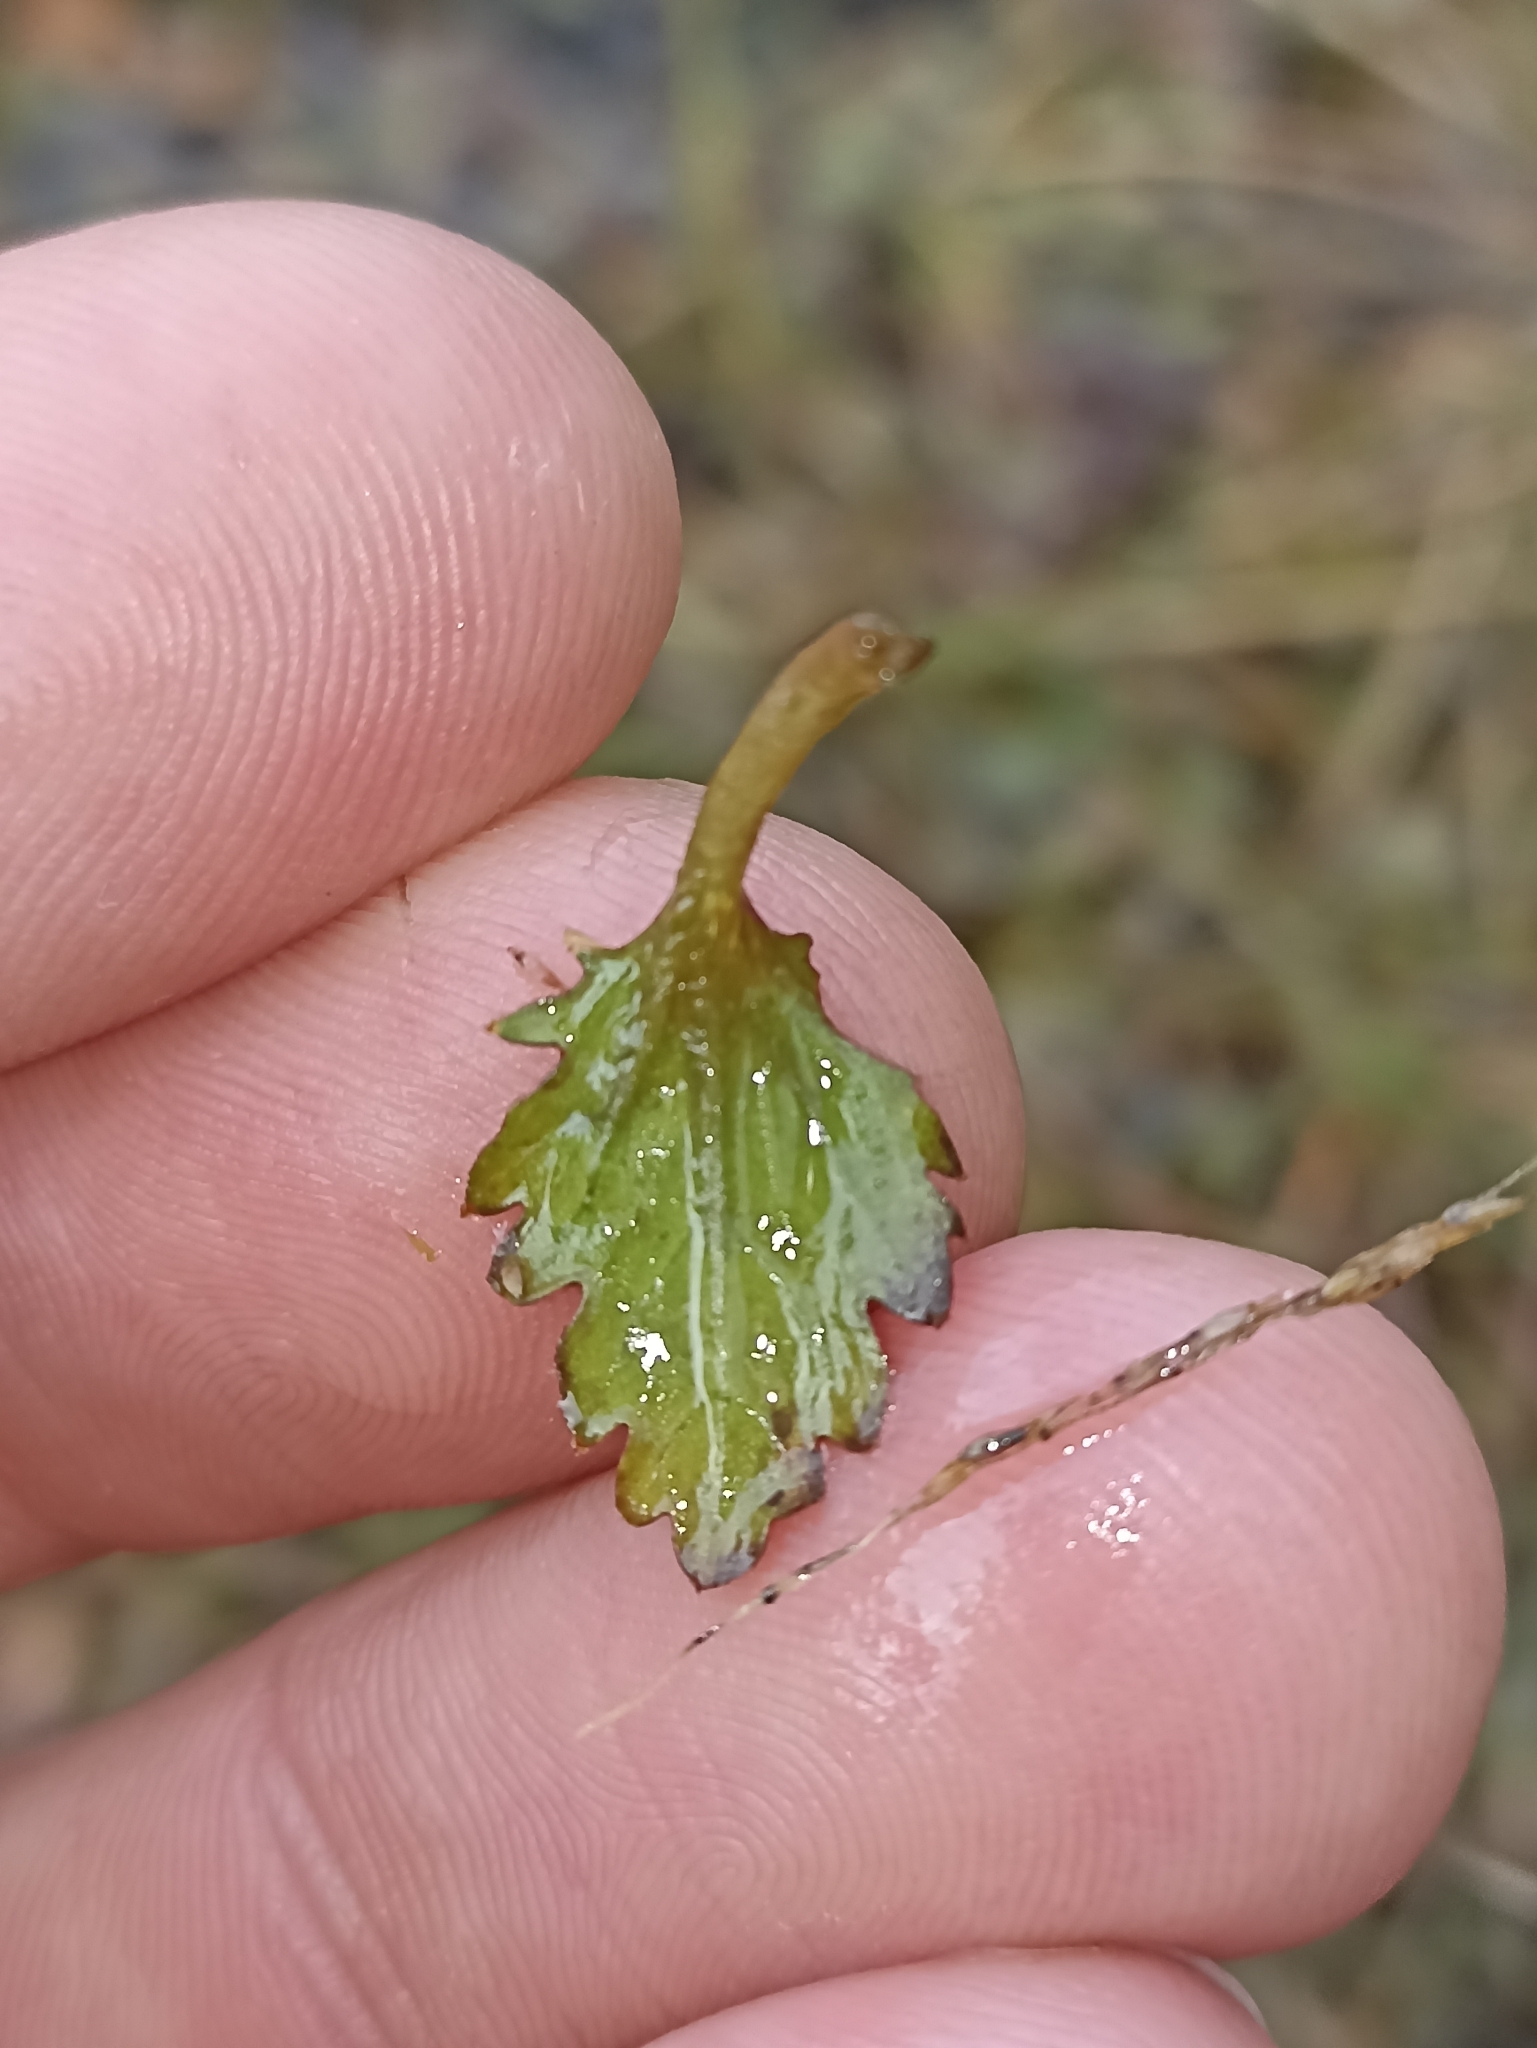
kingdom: Plantae
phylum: Tracheophyta
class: Magnoliopsida
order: Gunnerales
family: Gunneraceae
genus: Gunnera
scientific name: Gunnera dentata
